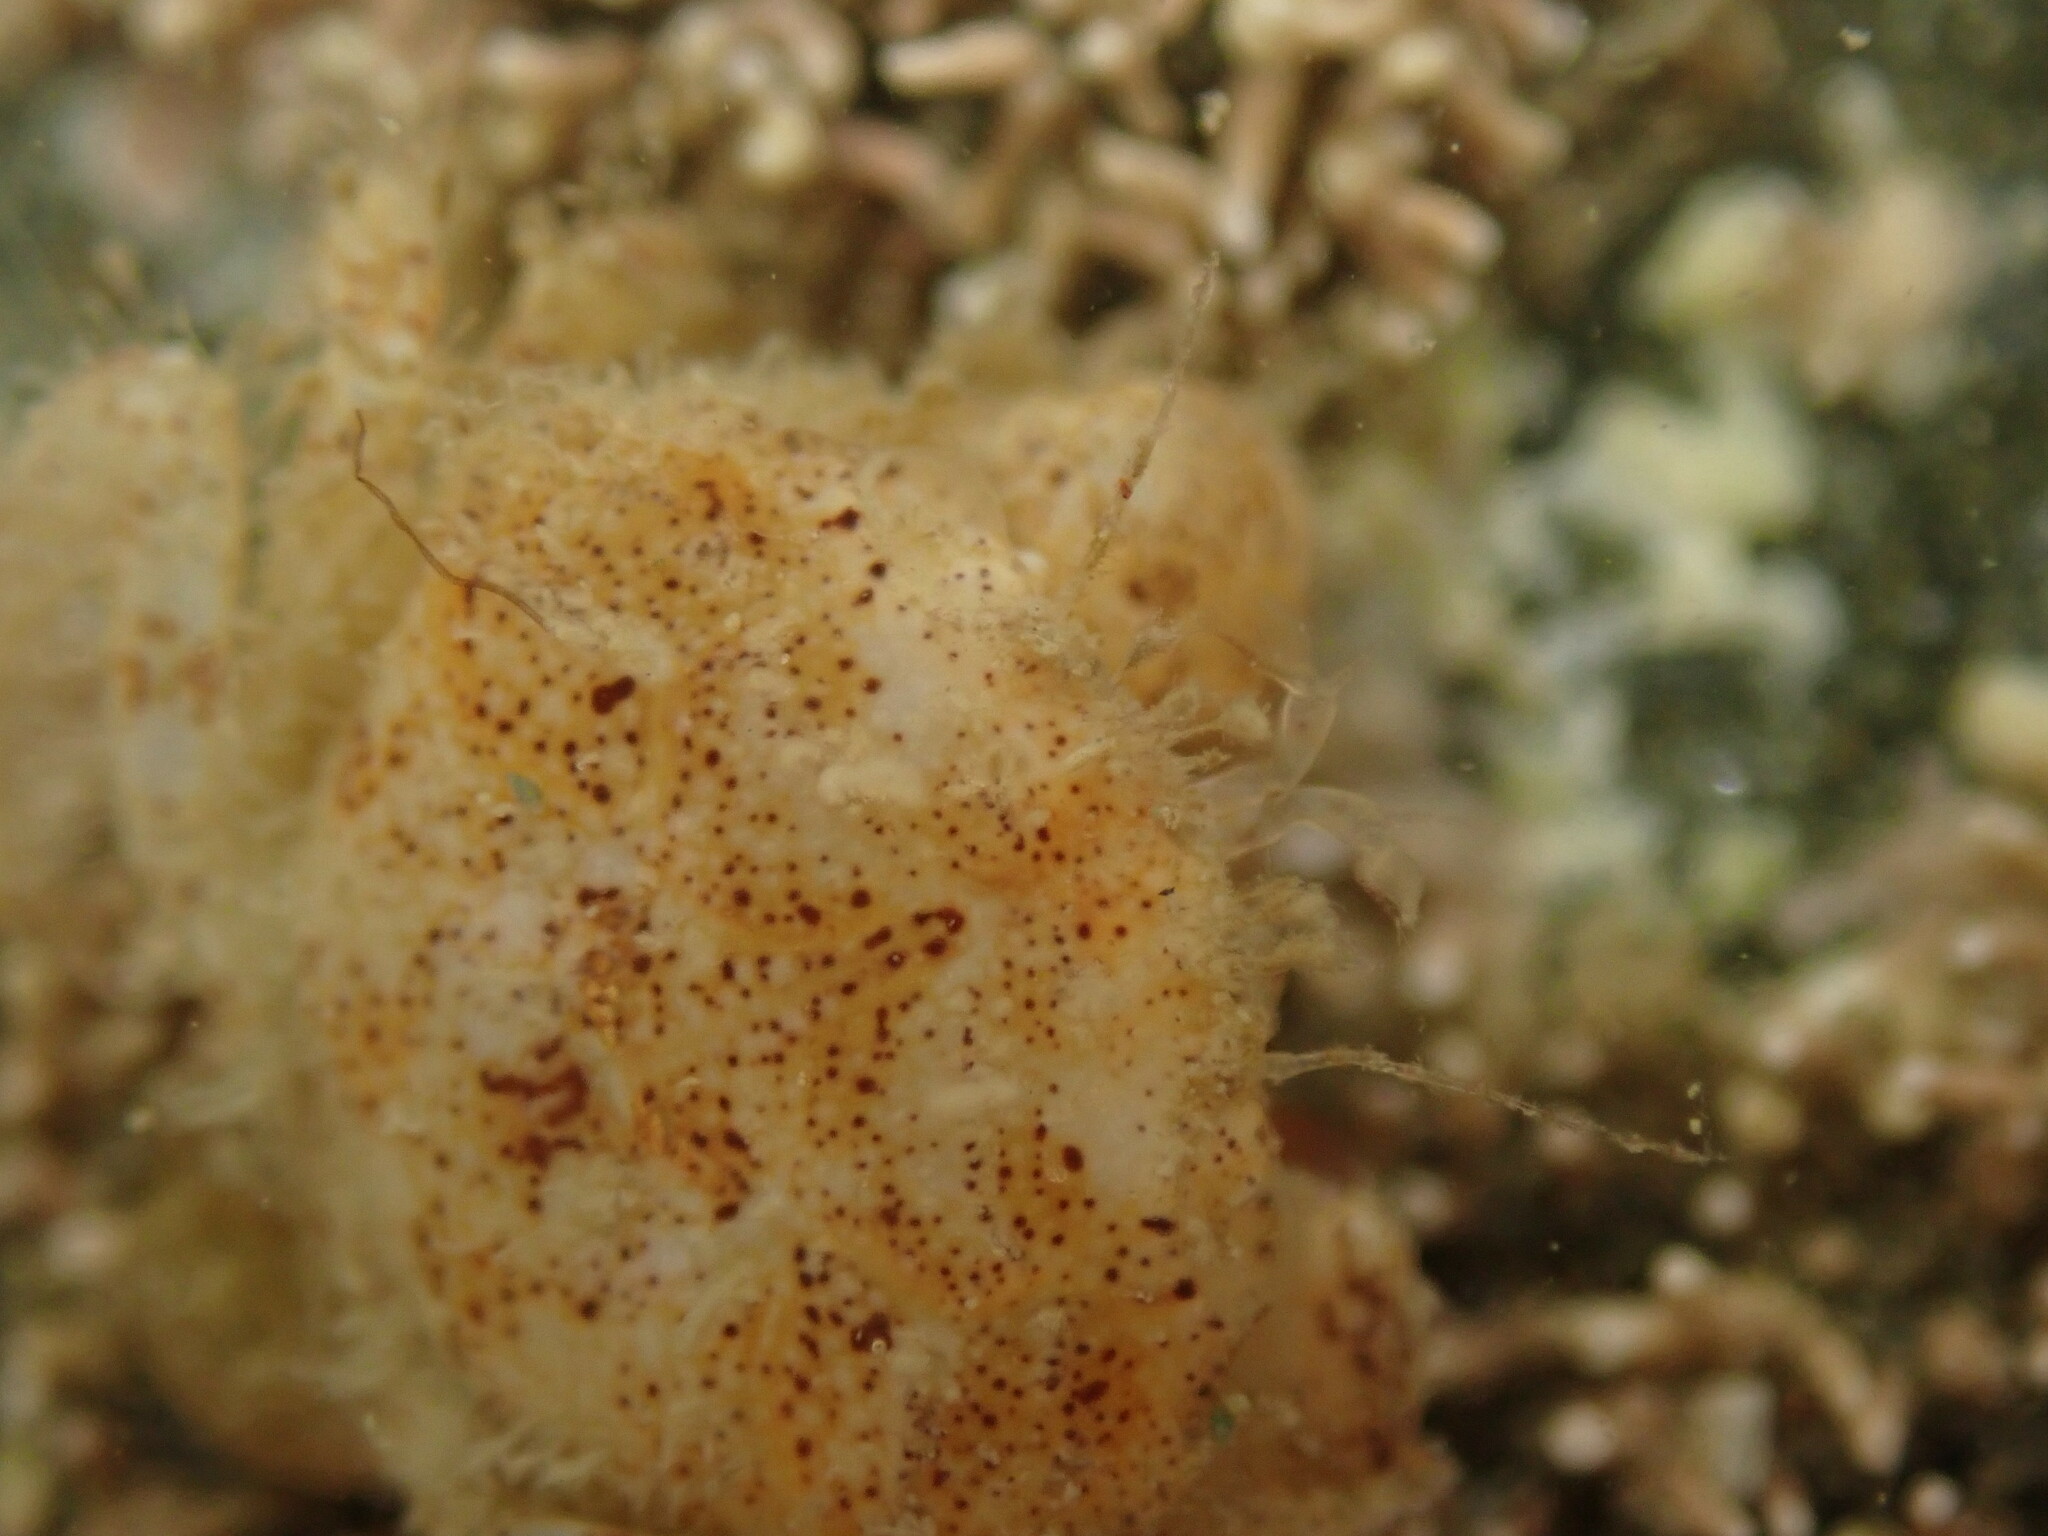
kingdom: Animalia
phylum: Arthropoda
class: Malacostraca
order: Decapoda
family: Pilumnidae
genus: Pilumnopeus
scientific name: Pilumnopeus serratifrons
